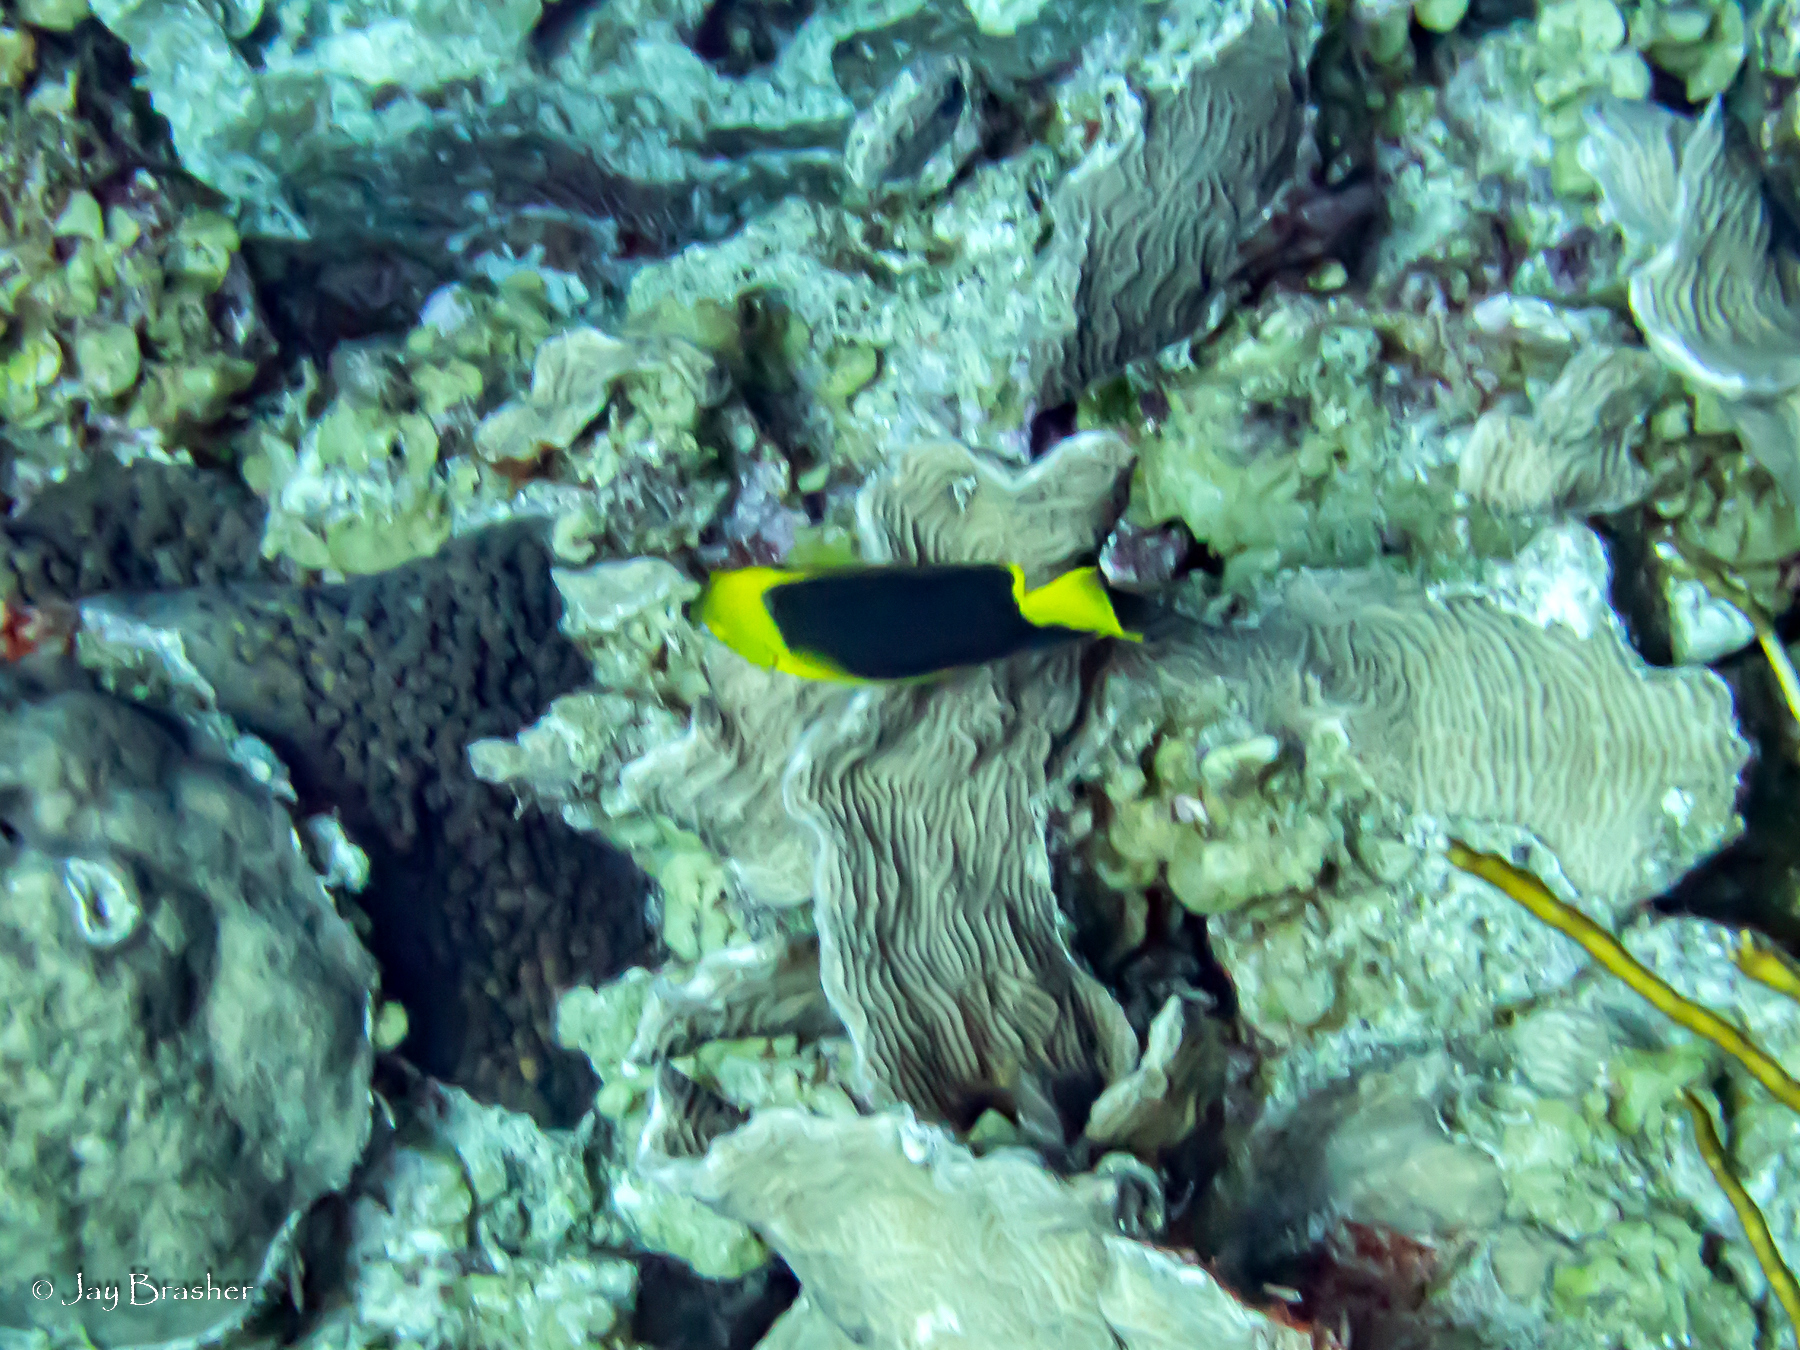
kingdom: Animalia
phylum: Chordata
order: Perciformes
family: Pomacanthidae
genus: Holacanthus
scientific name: Holacanthus tricolor
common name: Rock beauty
